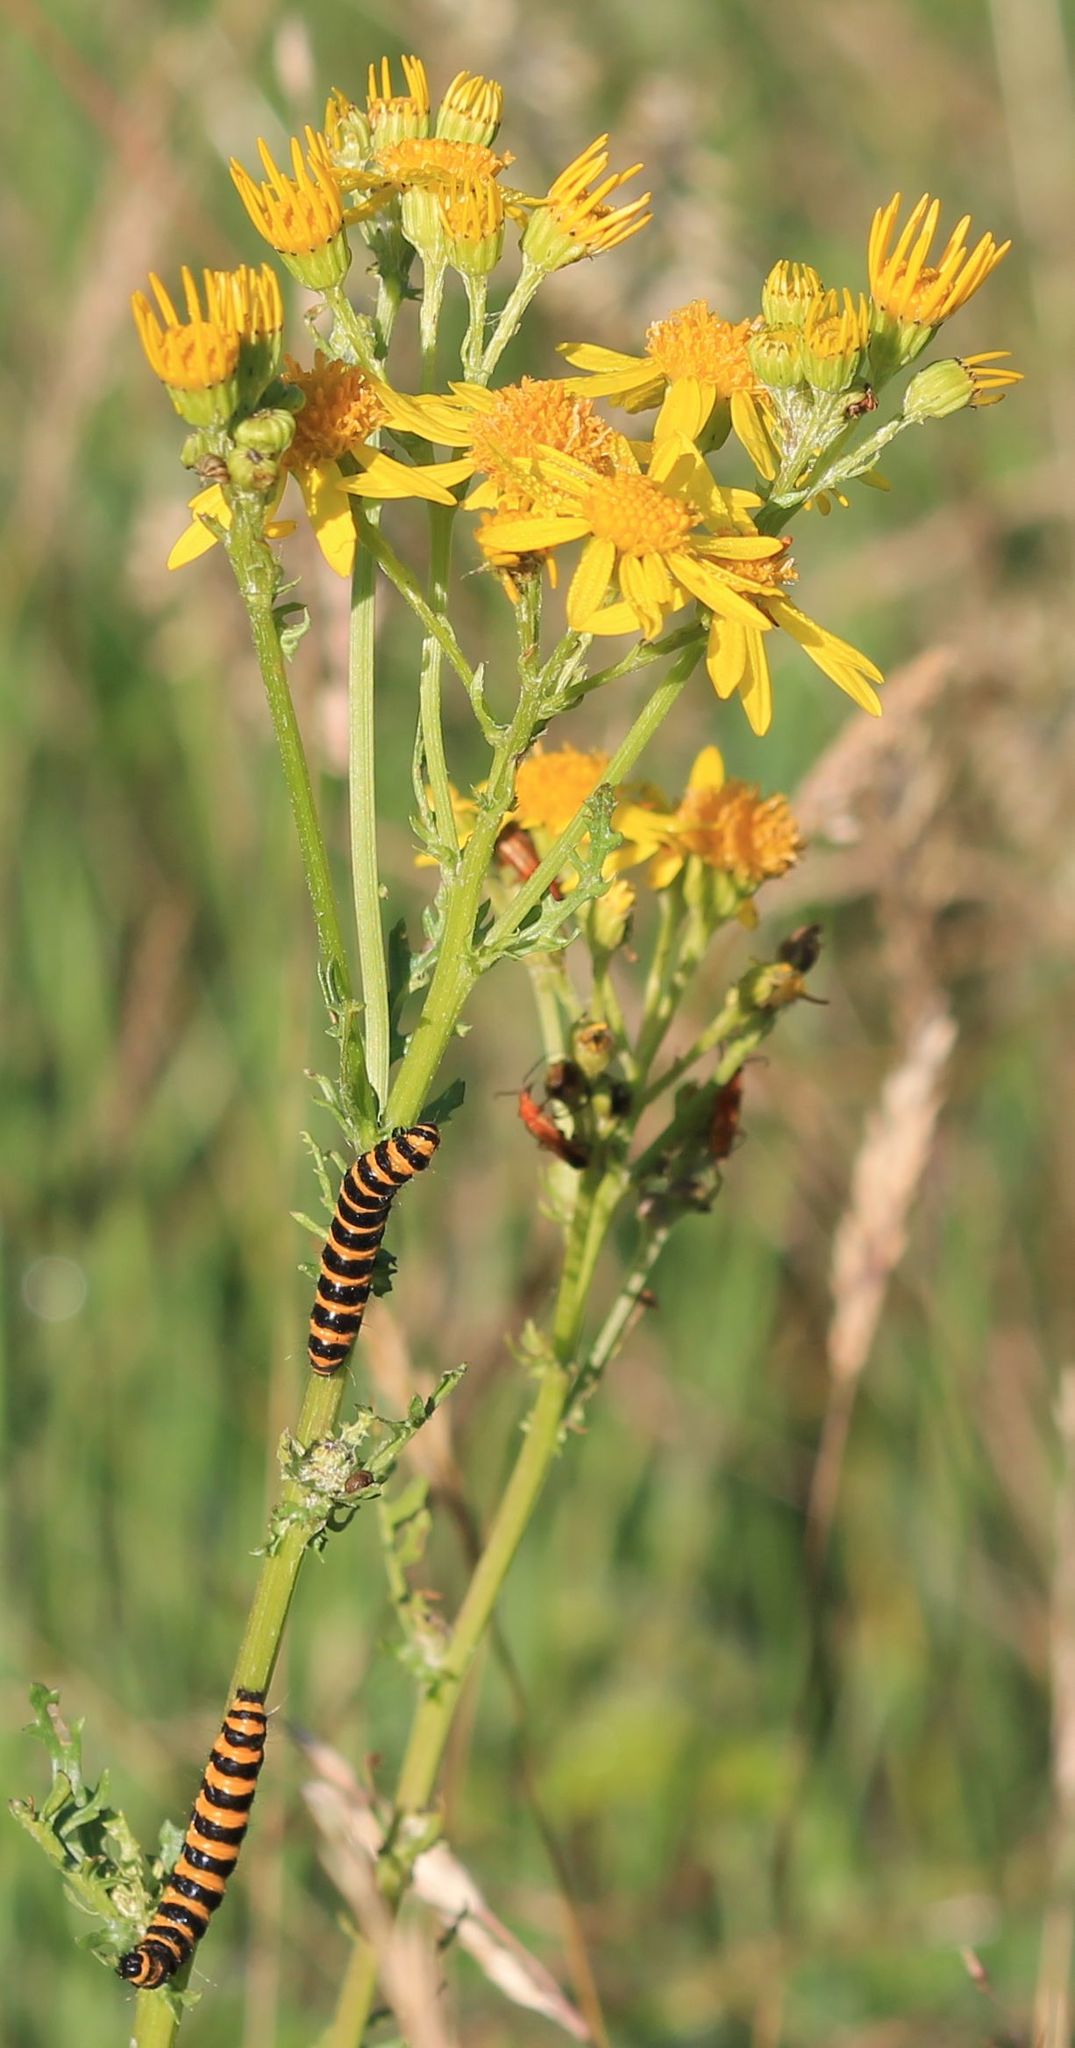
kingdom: Animalia
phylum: Arthropoda
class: Insecta
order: Lepidoptera
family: Erebidae
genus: Tyria
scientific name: Tyria jacobaeae
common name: Cinnabar
